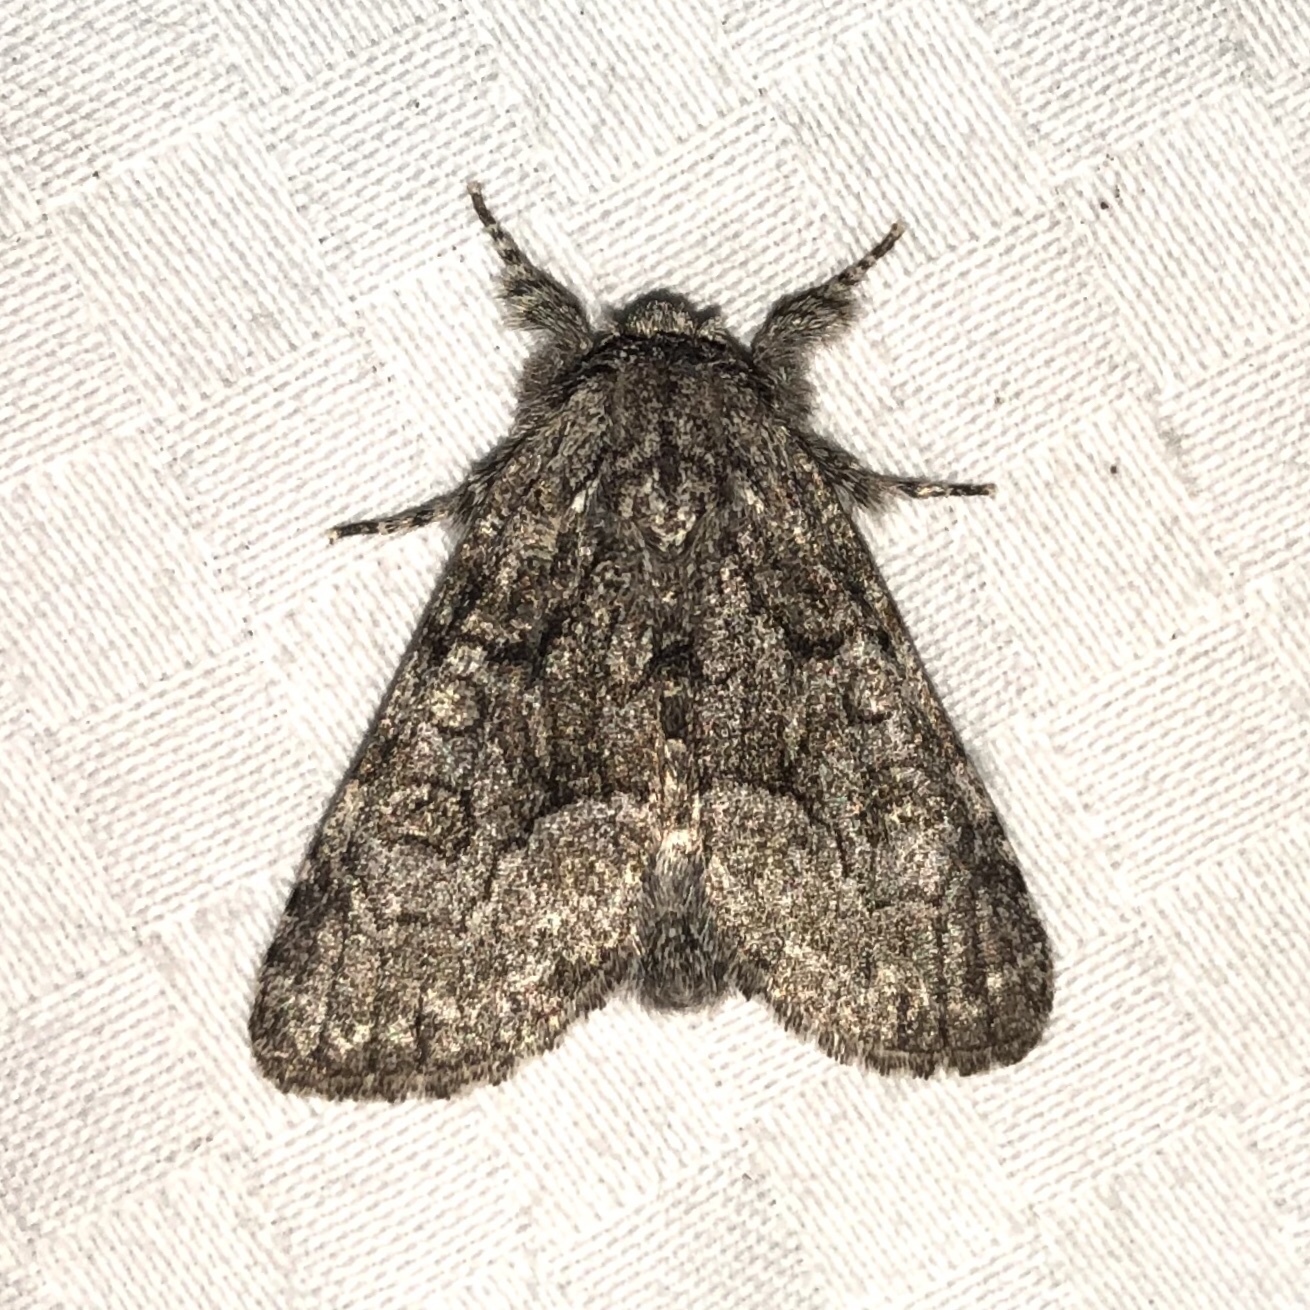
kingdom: Animalia
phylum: Arthropoda
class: Insecta
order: Lepidoptera
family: Noctuidae
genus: Raphia
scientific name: Raphia frater
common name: Brother
